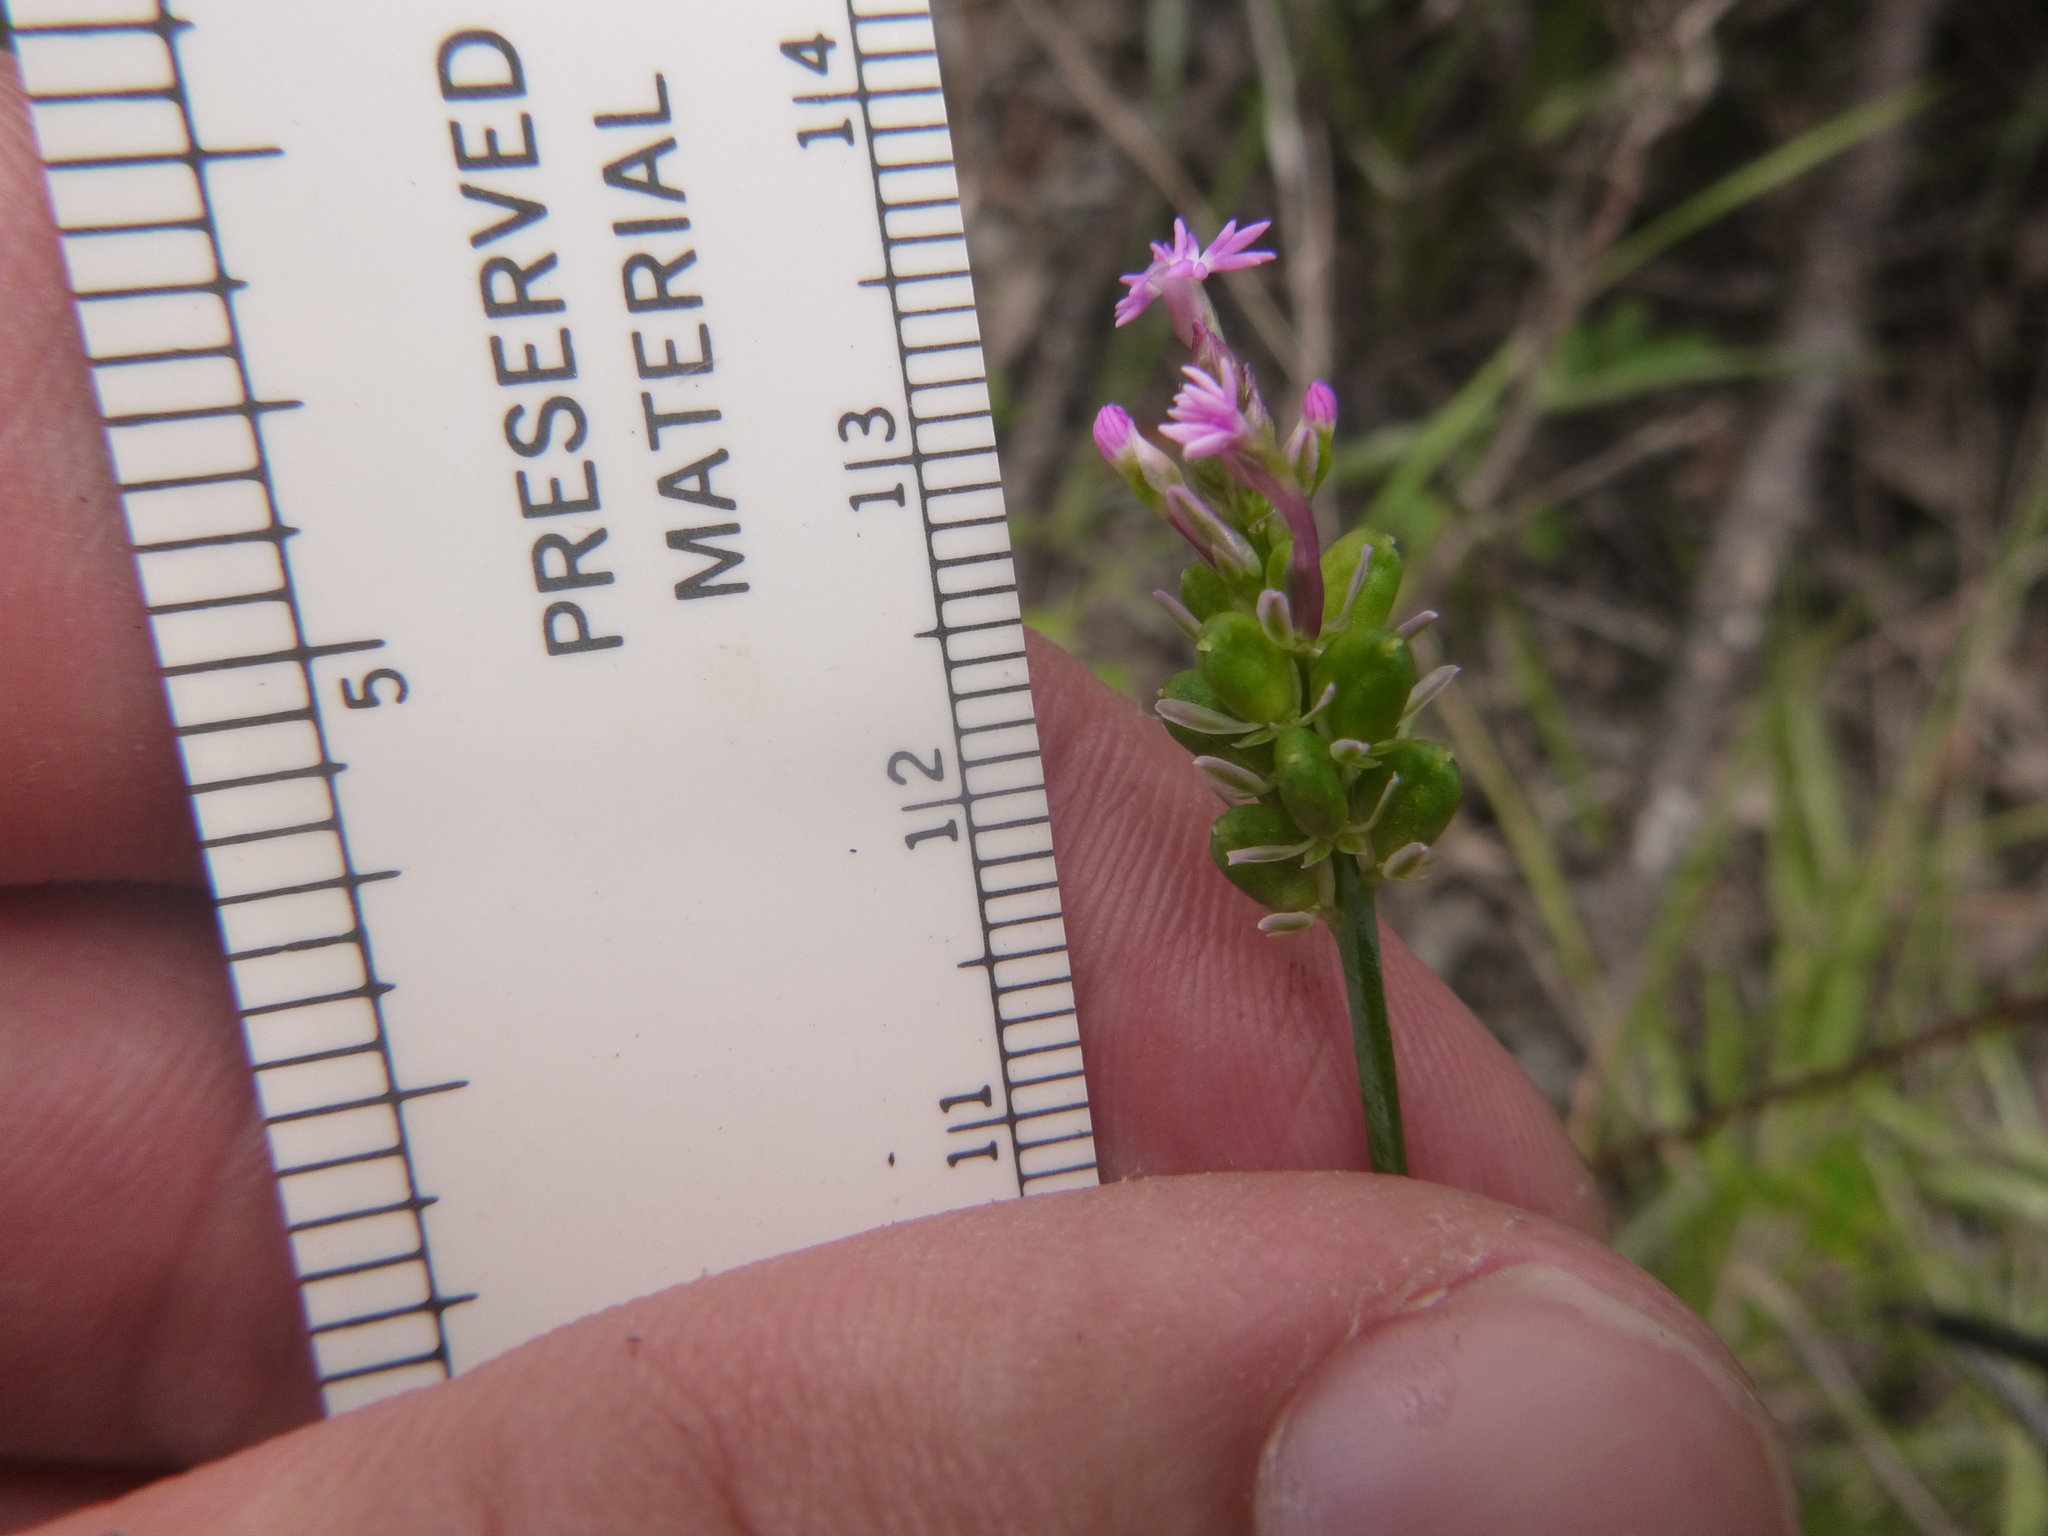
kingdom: Plantae
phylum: Tracheophyta
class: Magnoliopsida
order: Fabales
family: Polygalaceae
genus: Polygala
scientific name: Polygala incarnata
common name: Pink milkwort
